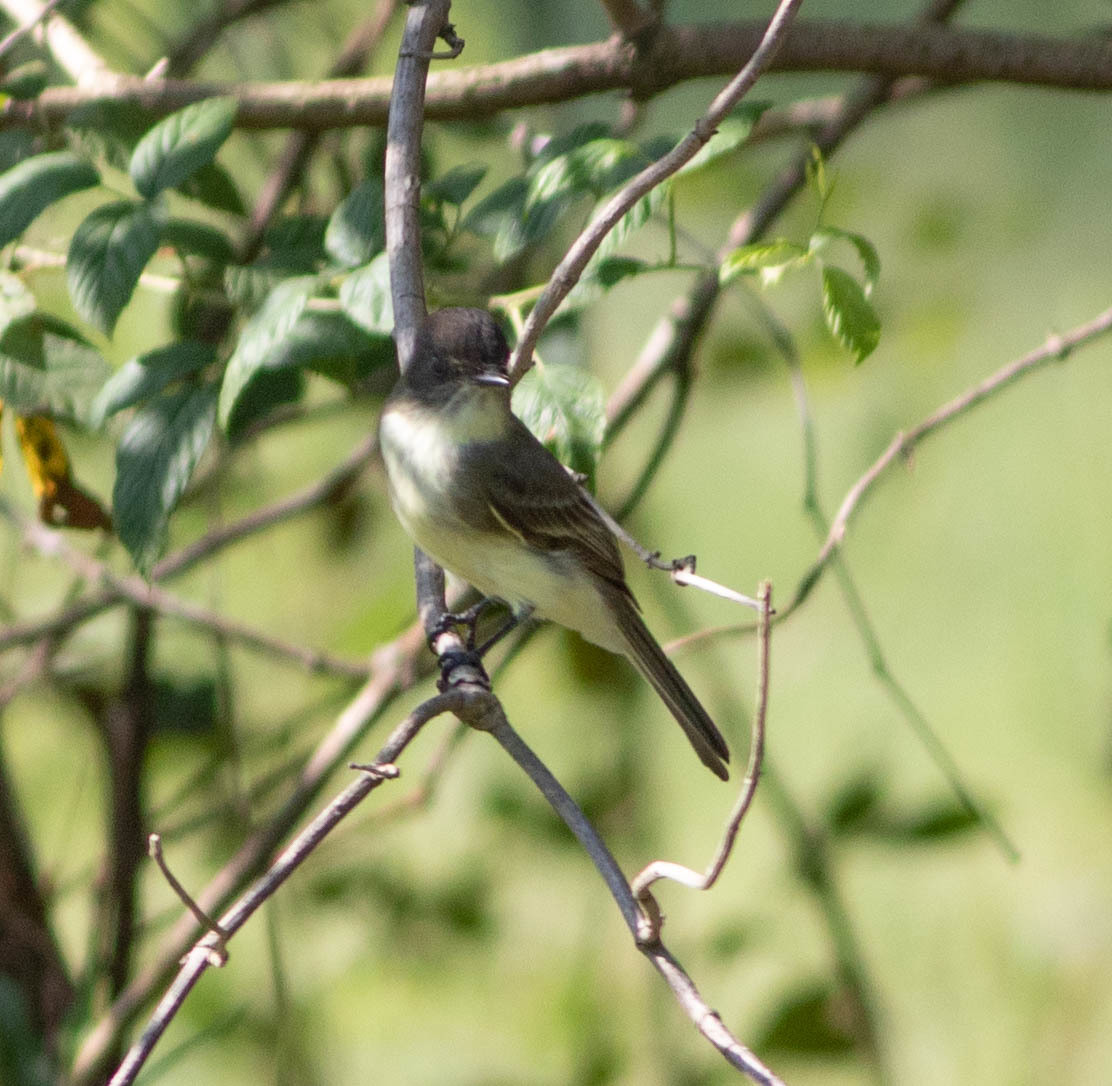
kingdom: Animalia
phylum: Chordata
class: Aves
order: Passeriformes
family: Tyrannidae
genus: Sayornis
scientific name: Sayornis phoebe
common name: Eastern phoebe
